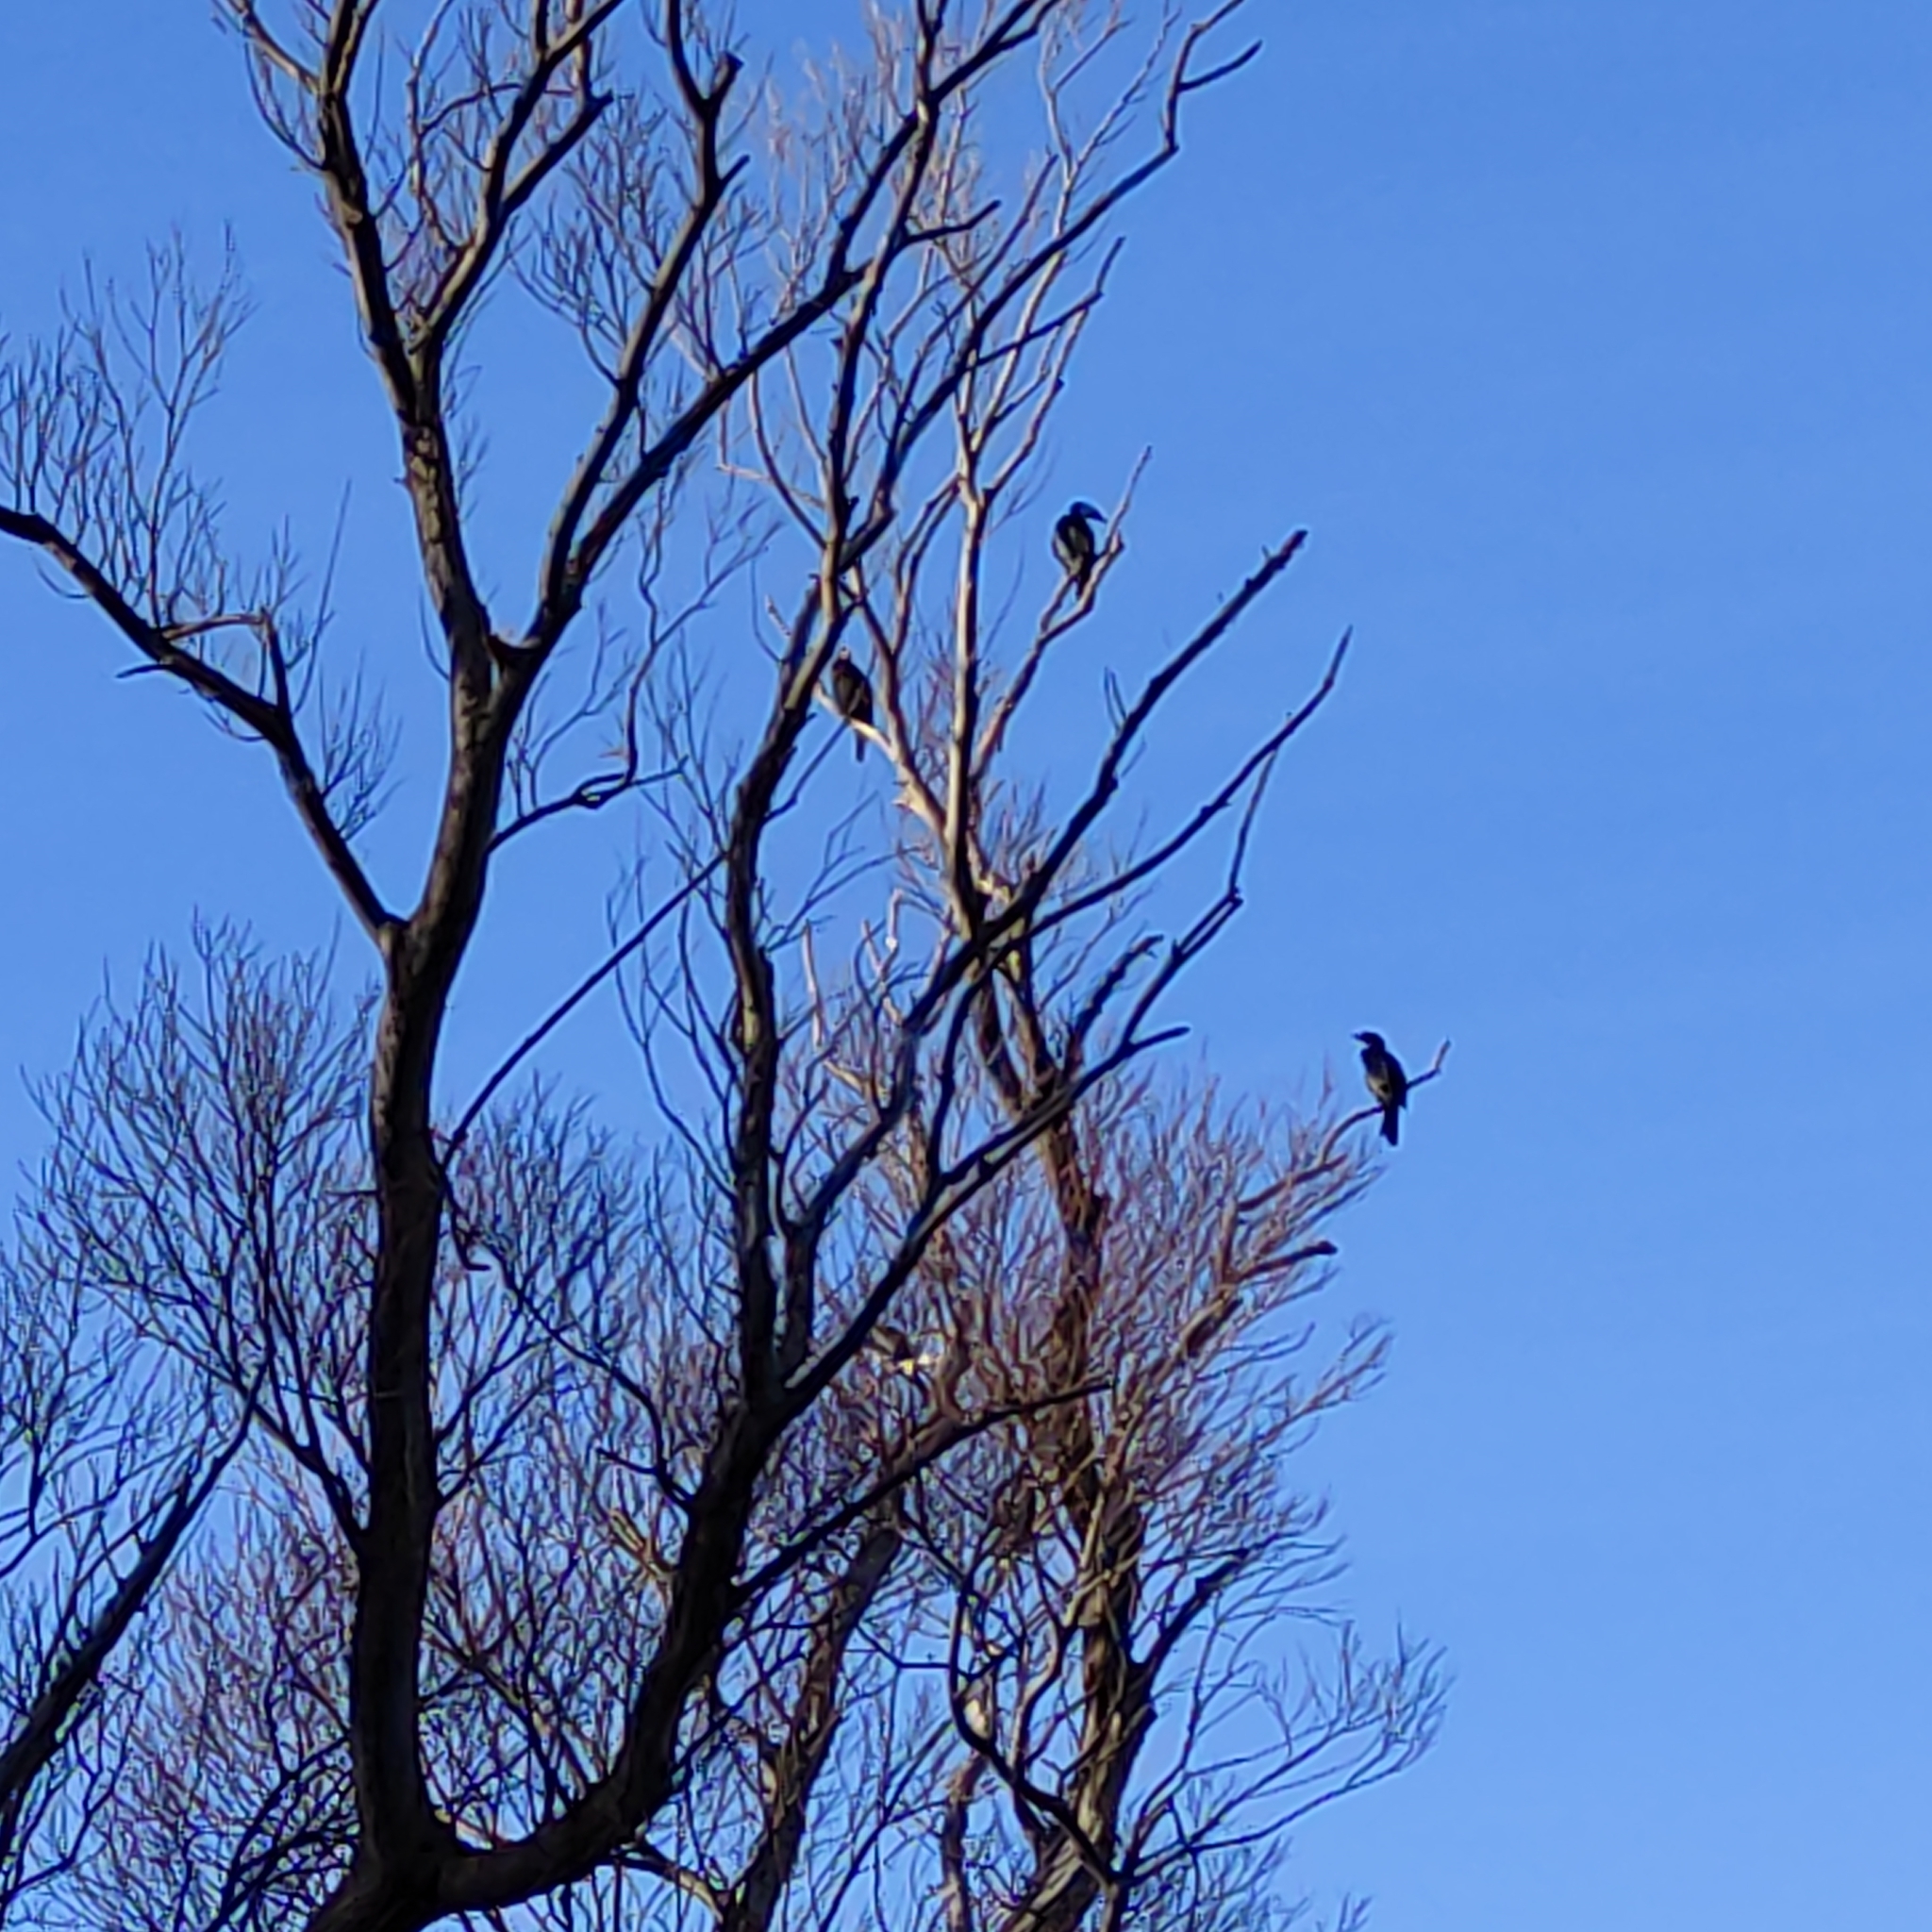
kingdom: Animalia
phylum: Chordata
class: Aves
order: Suliformes
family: Phalacrocoracidae
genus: Microcarbo
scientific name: Microcarbo melanoleucos
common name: Little pied cormorant
